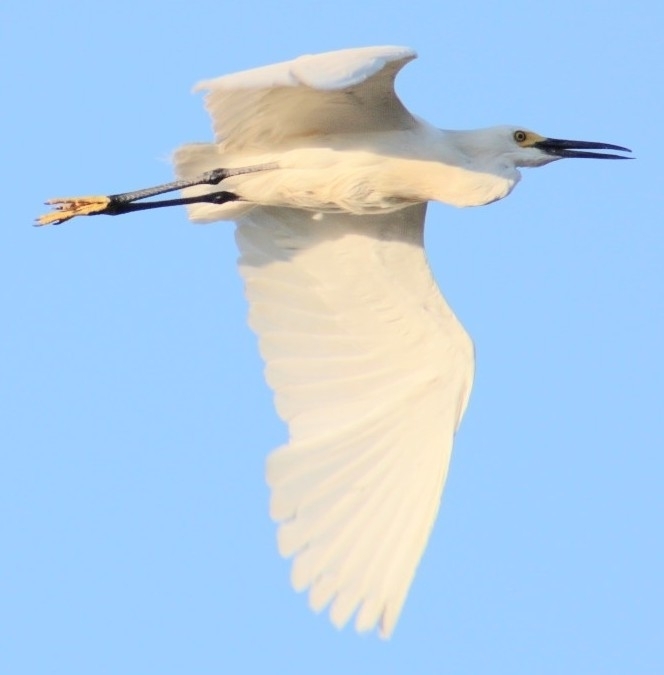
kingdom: Animalia
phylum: Chordata
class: Aves
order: Pelecaniformes
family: Ardeidae
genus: Egretta
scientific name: Egretta thula
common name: Snowy egret
